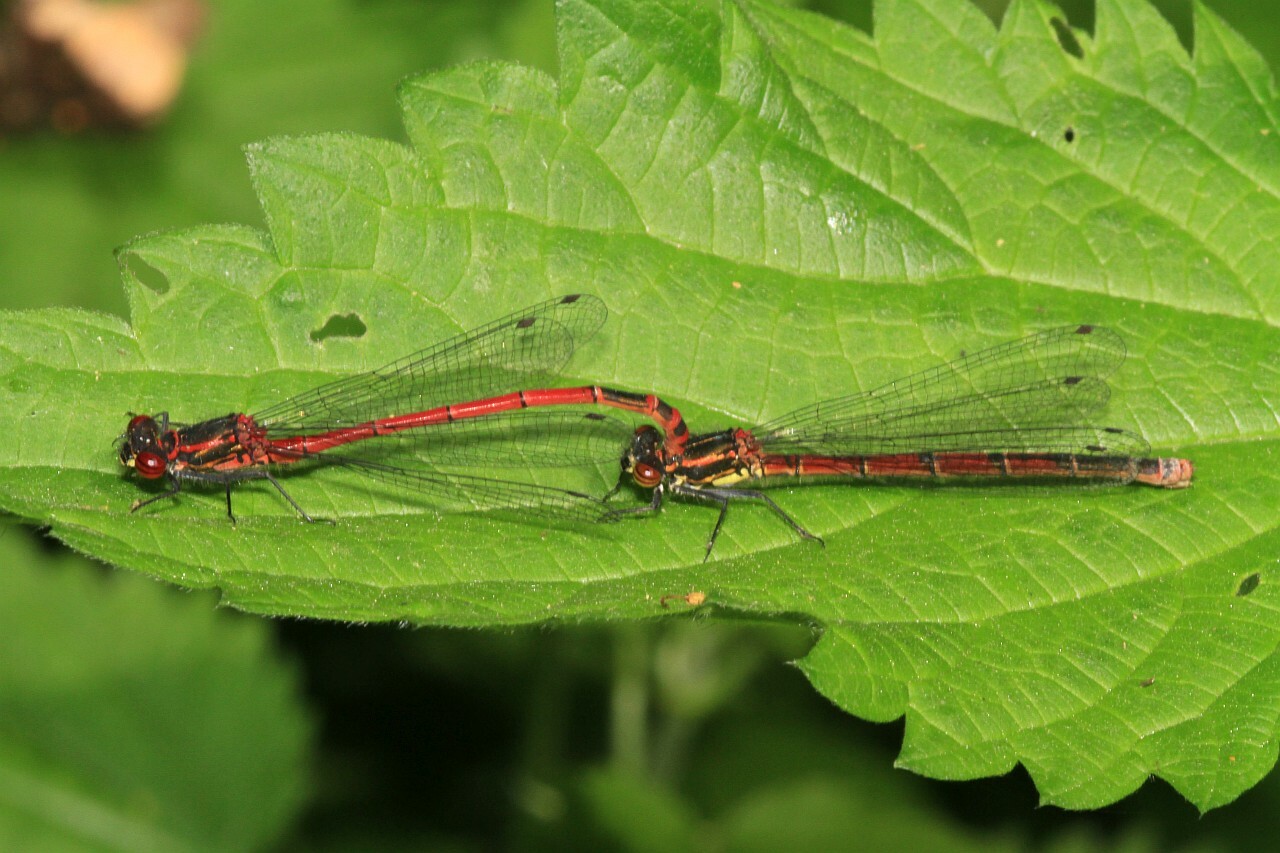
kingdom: Animalia
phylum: Arthropoda
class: Insecta
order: Odonata
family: Coenagrionidae
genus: Pyrrhosoma
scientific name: Pyrrhosoma nymphula
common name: Large red damsel
